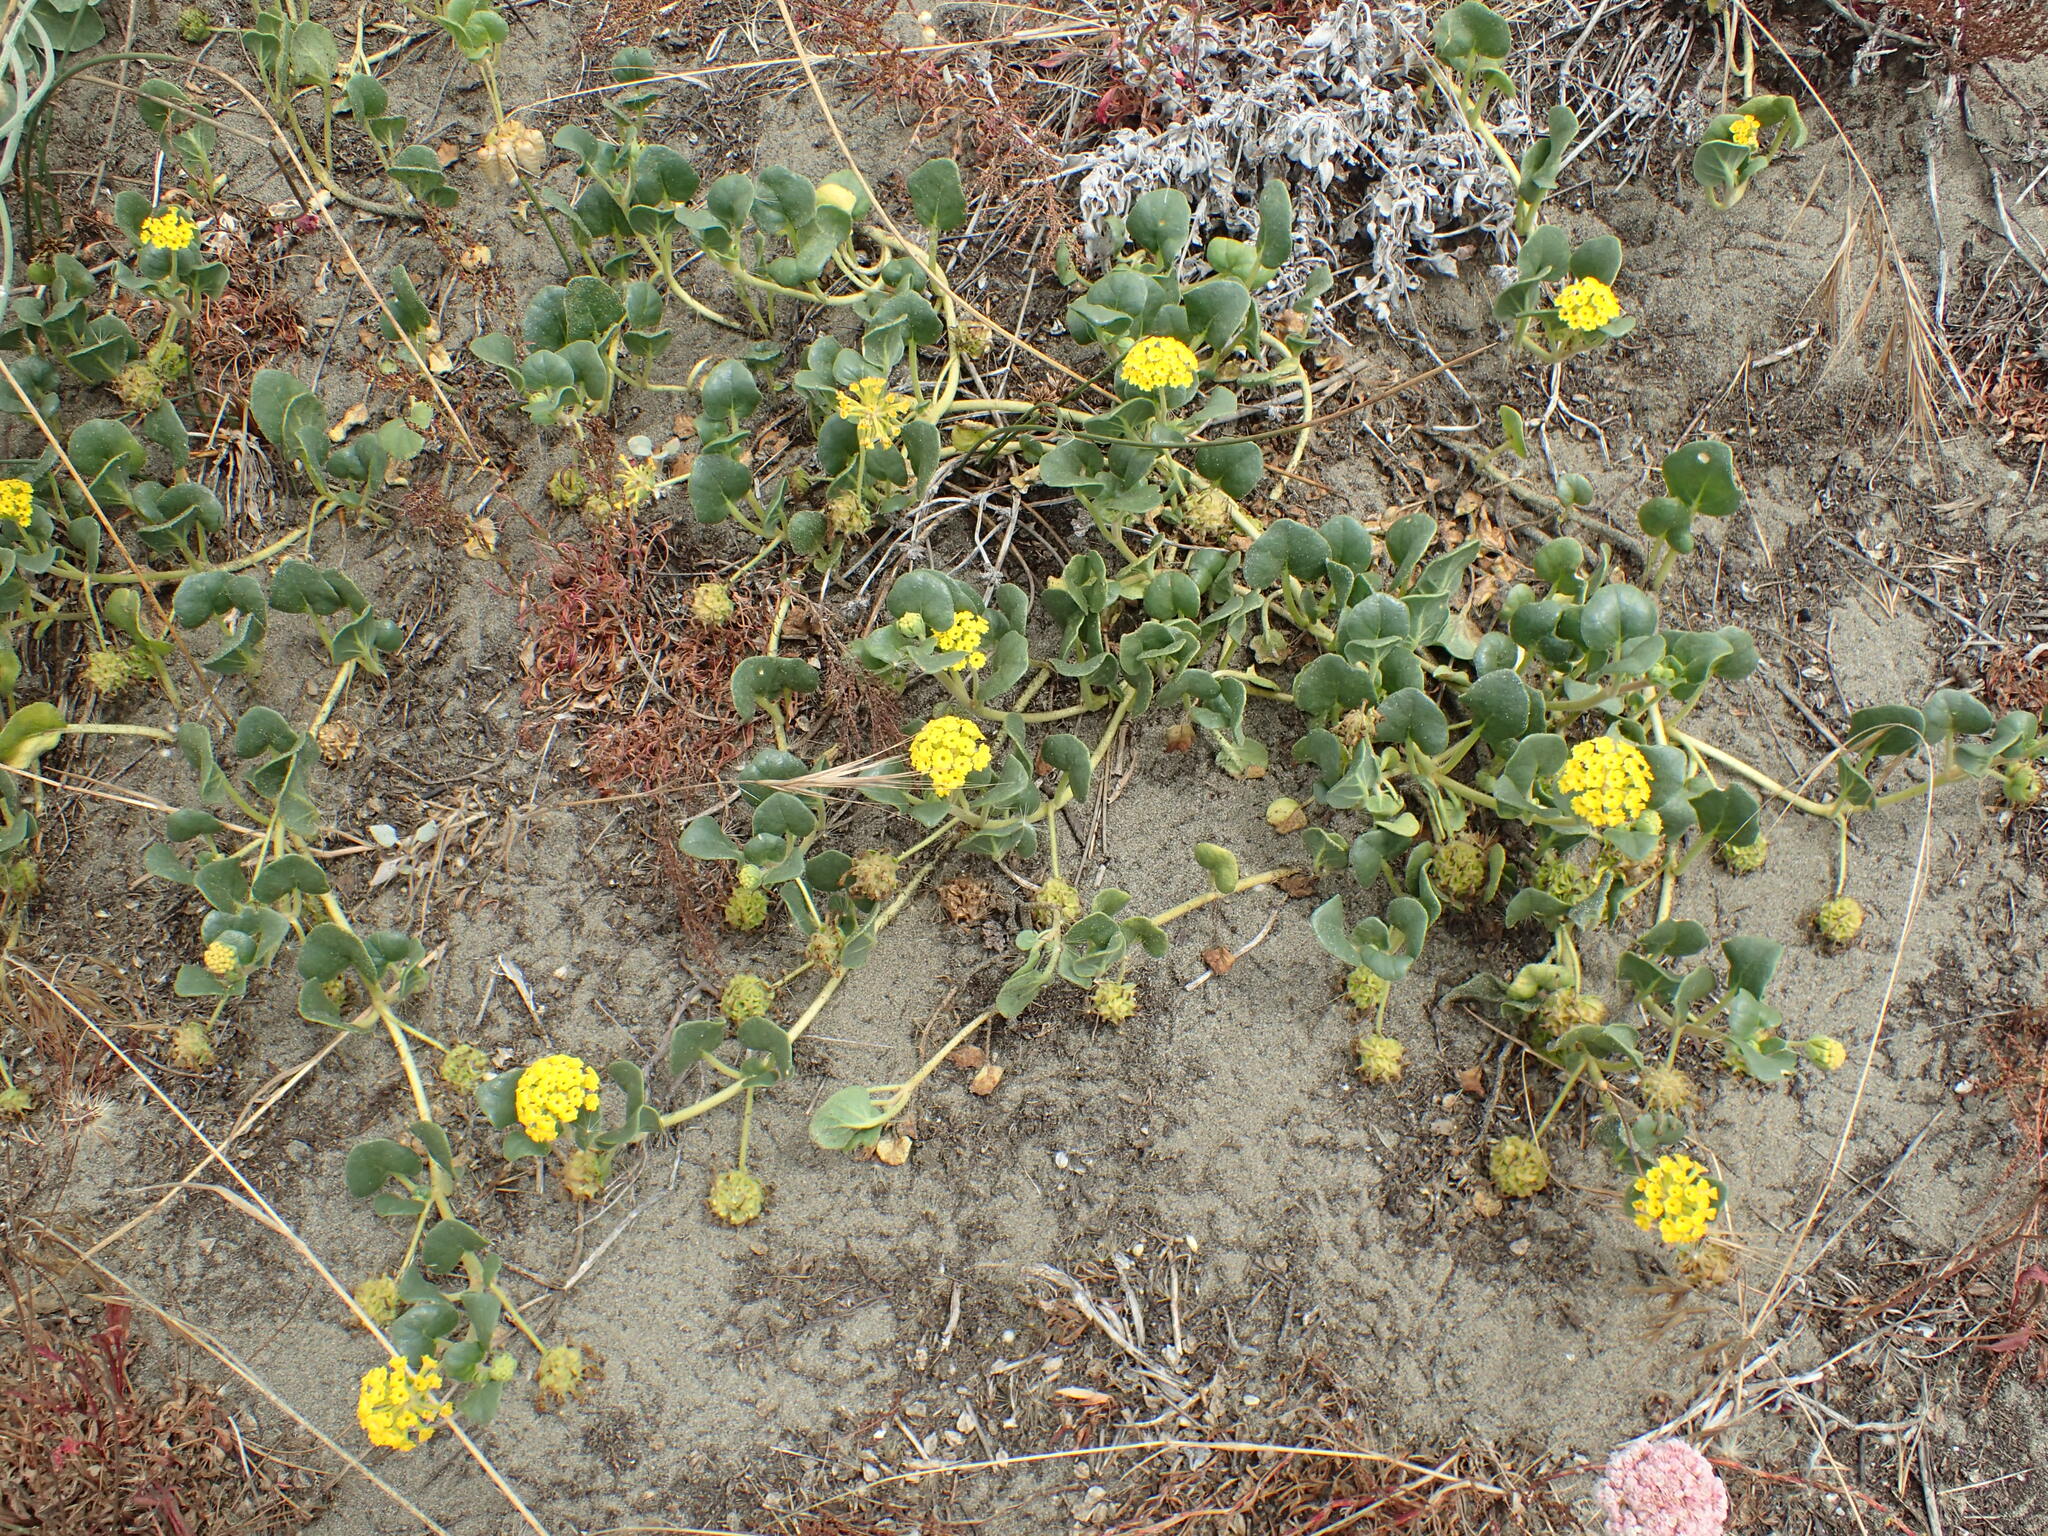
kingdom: Plantae
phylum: Tracheophyta
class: Magnoliopsida
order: Caryophyllales
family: Nyctaginaceae
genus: Abronia
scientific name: Abronia latifolia
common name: Yellow sand-verbena
